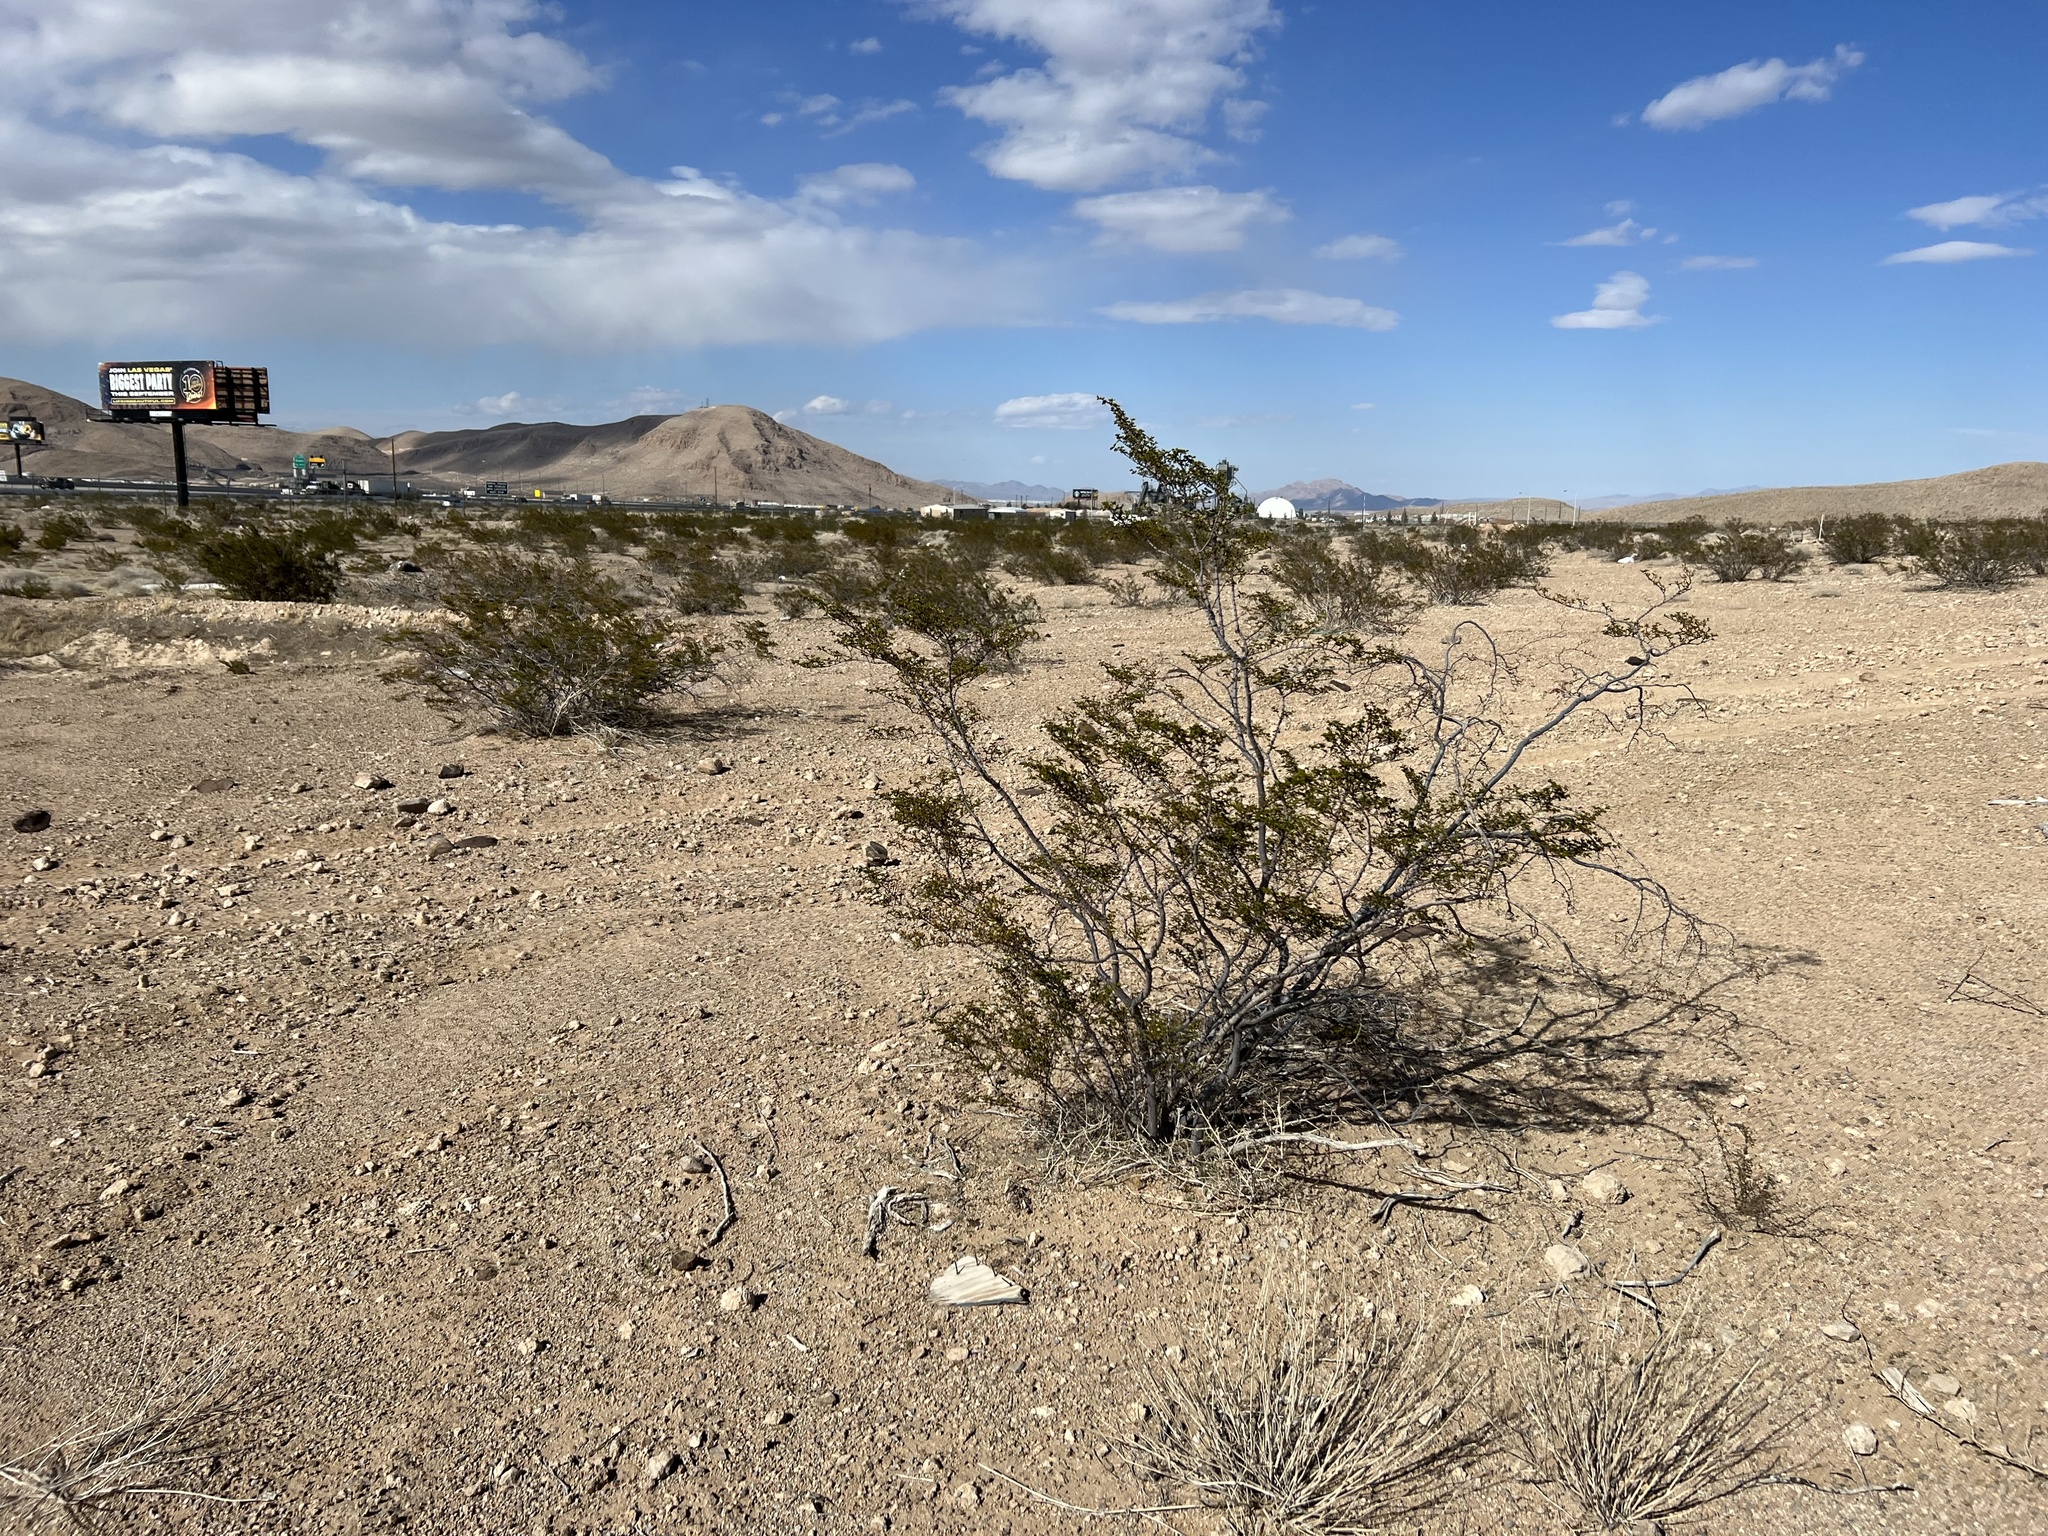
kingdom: Plantae
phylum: Tracheophyta
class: Magnoliopsida
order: Zygophyllales
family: Zygophyllaceae
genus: Larrea
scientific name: Larrea tridentata
